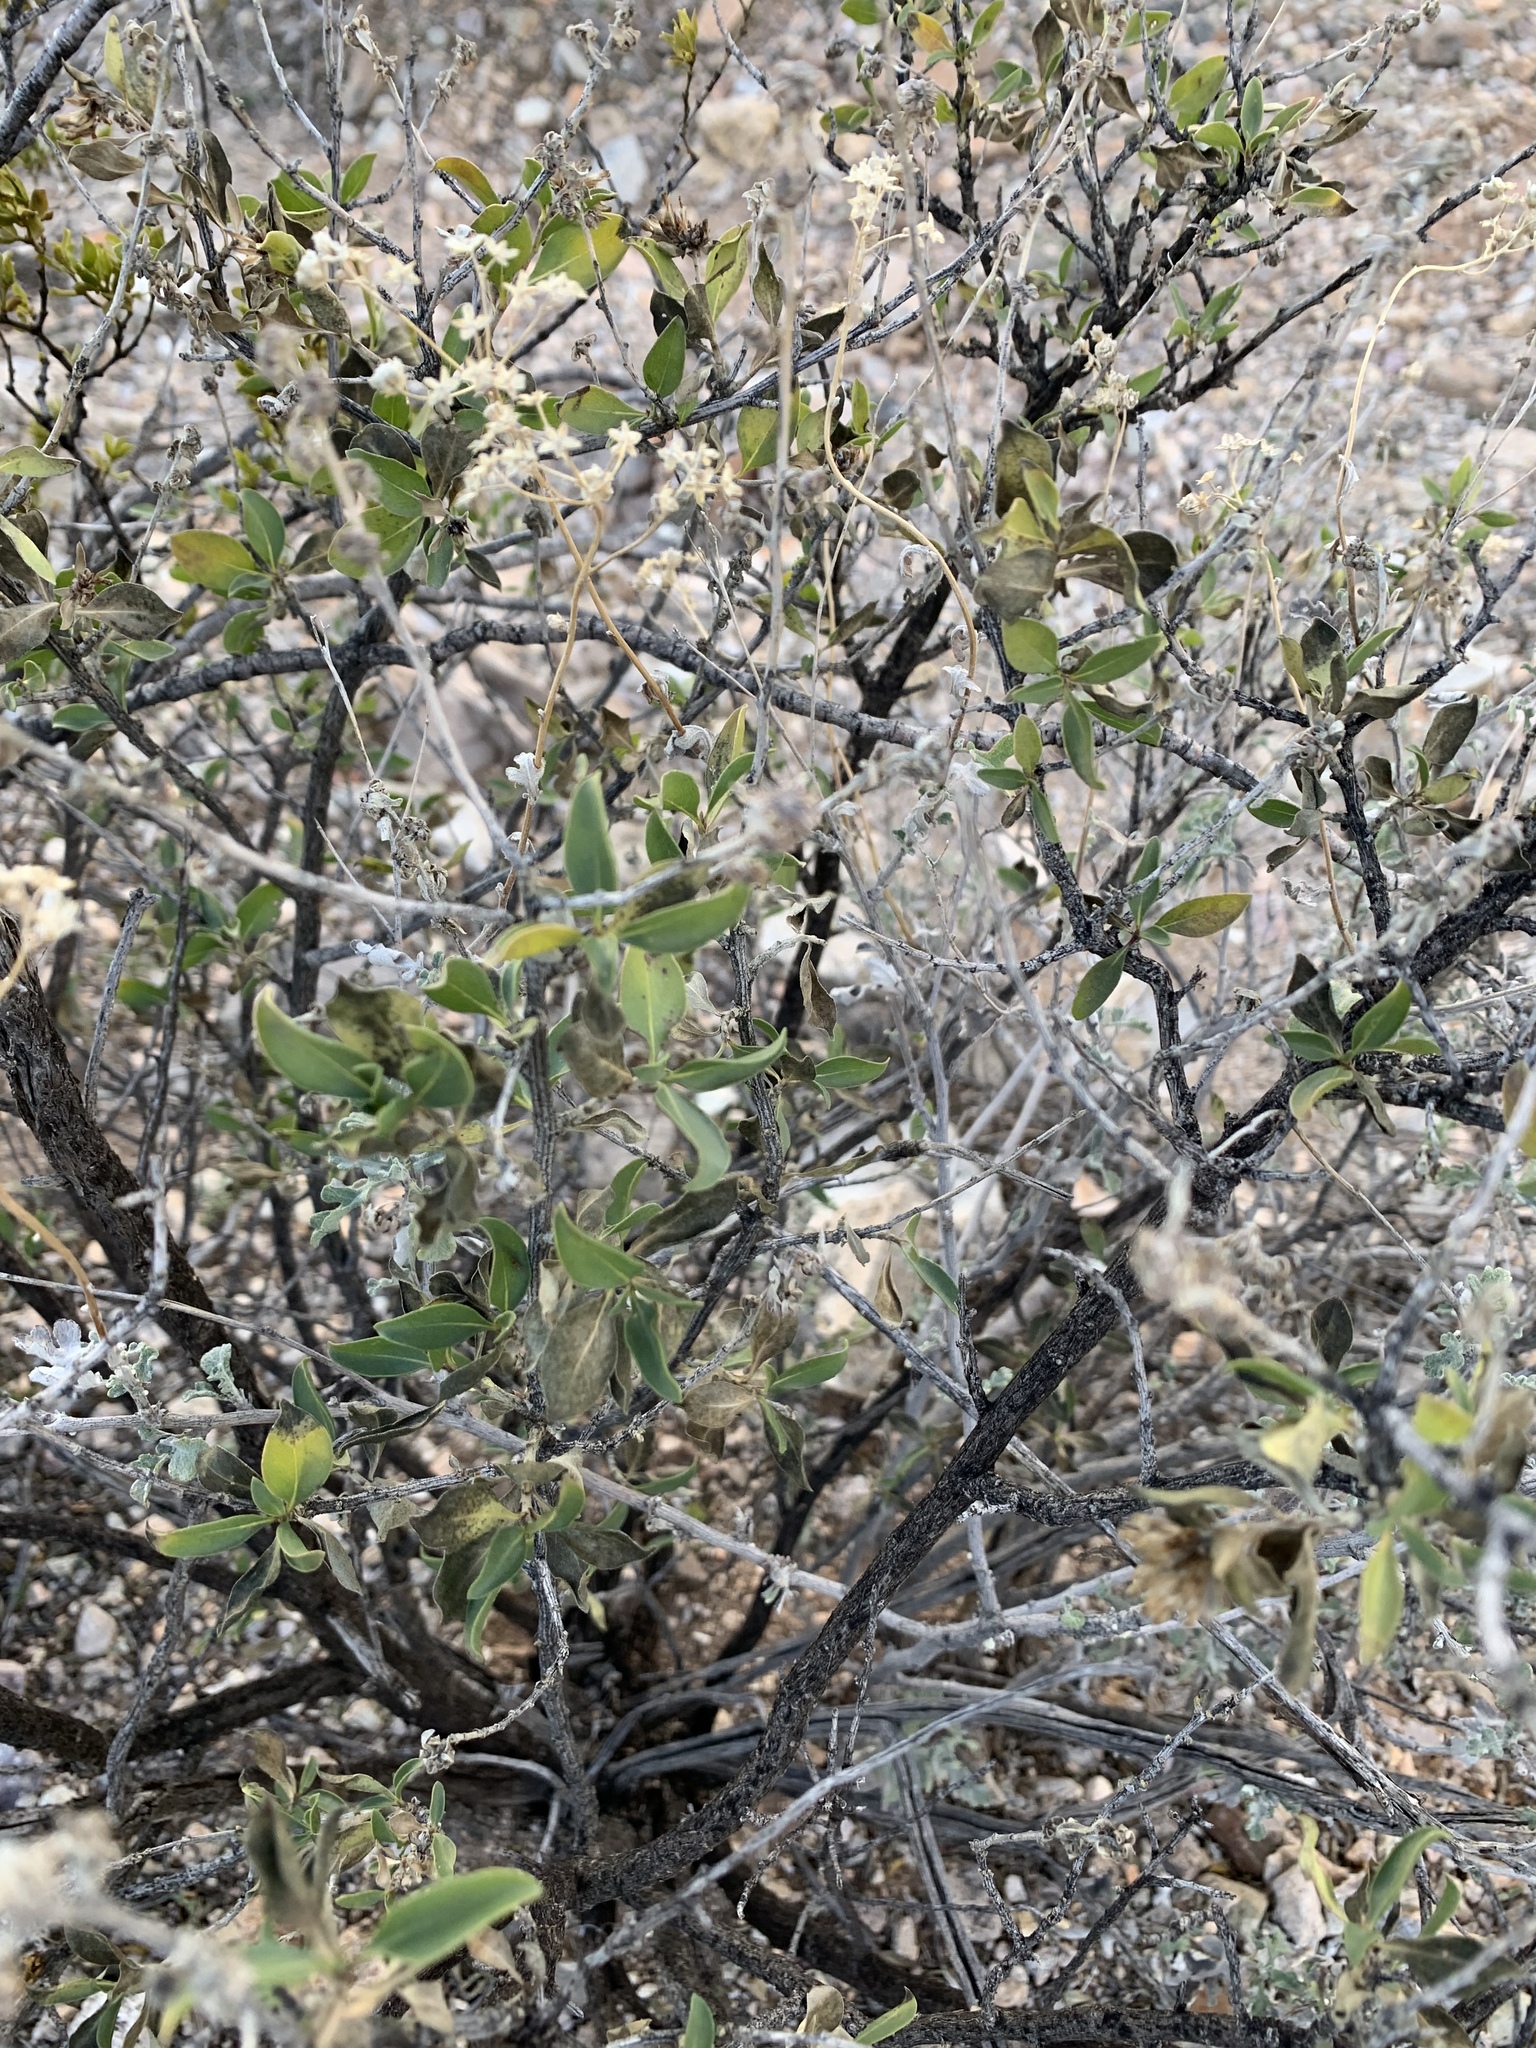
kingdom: Plantae
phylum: Tracheophyta
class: Magnoliopsida
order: Asterales
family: Asteraceae
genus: Flourensia
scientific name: Flourensia cernua
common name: Varnishbush
